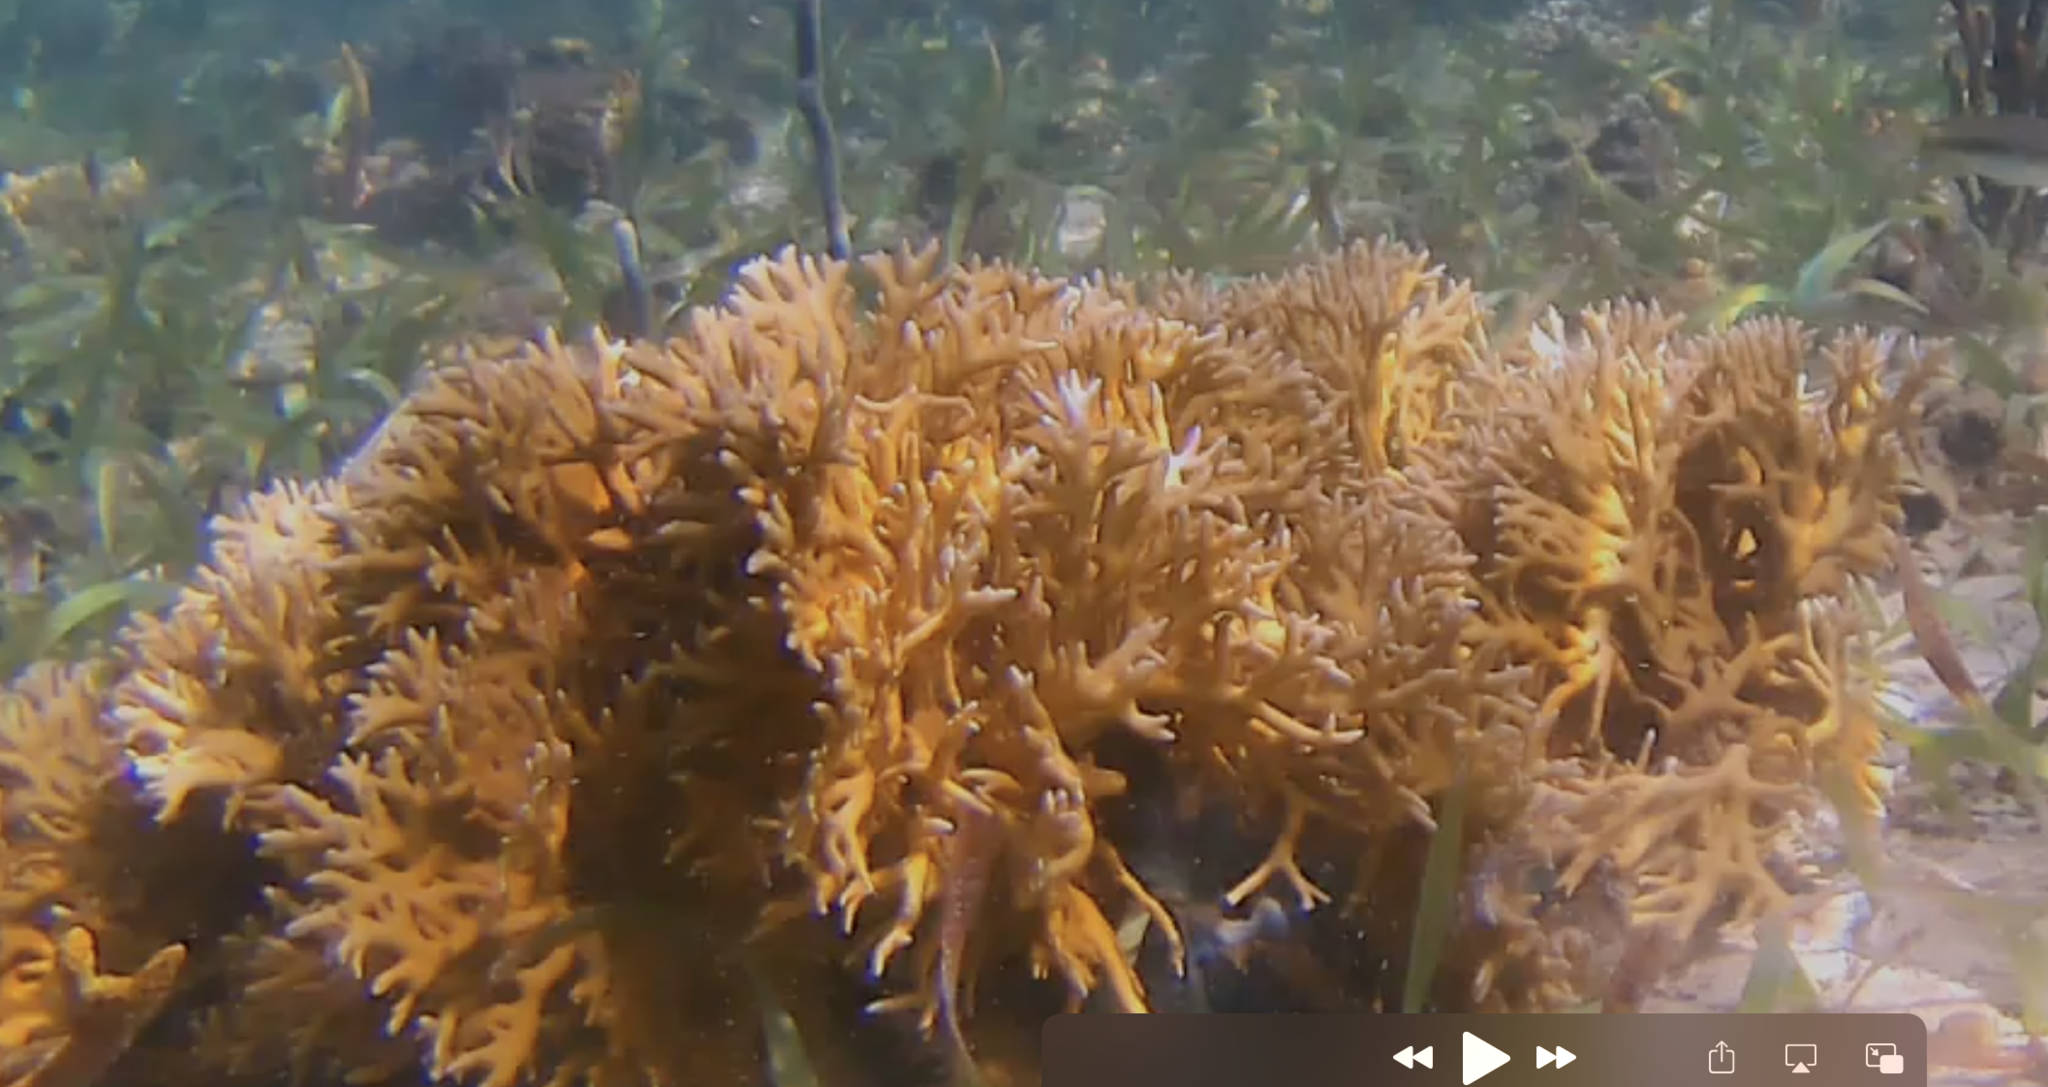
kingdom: Animalia
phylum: Cnidaria
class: Hydrozoa
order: Anthoathecata
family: Milleporidae
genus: Millepora
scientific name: Millepora alcicornis
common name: Branching fire coral
